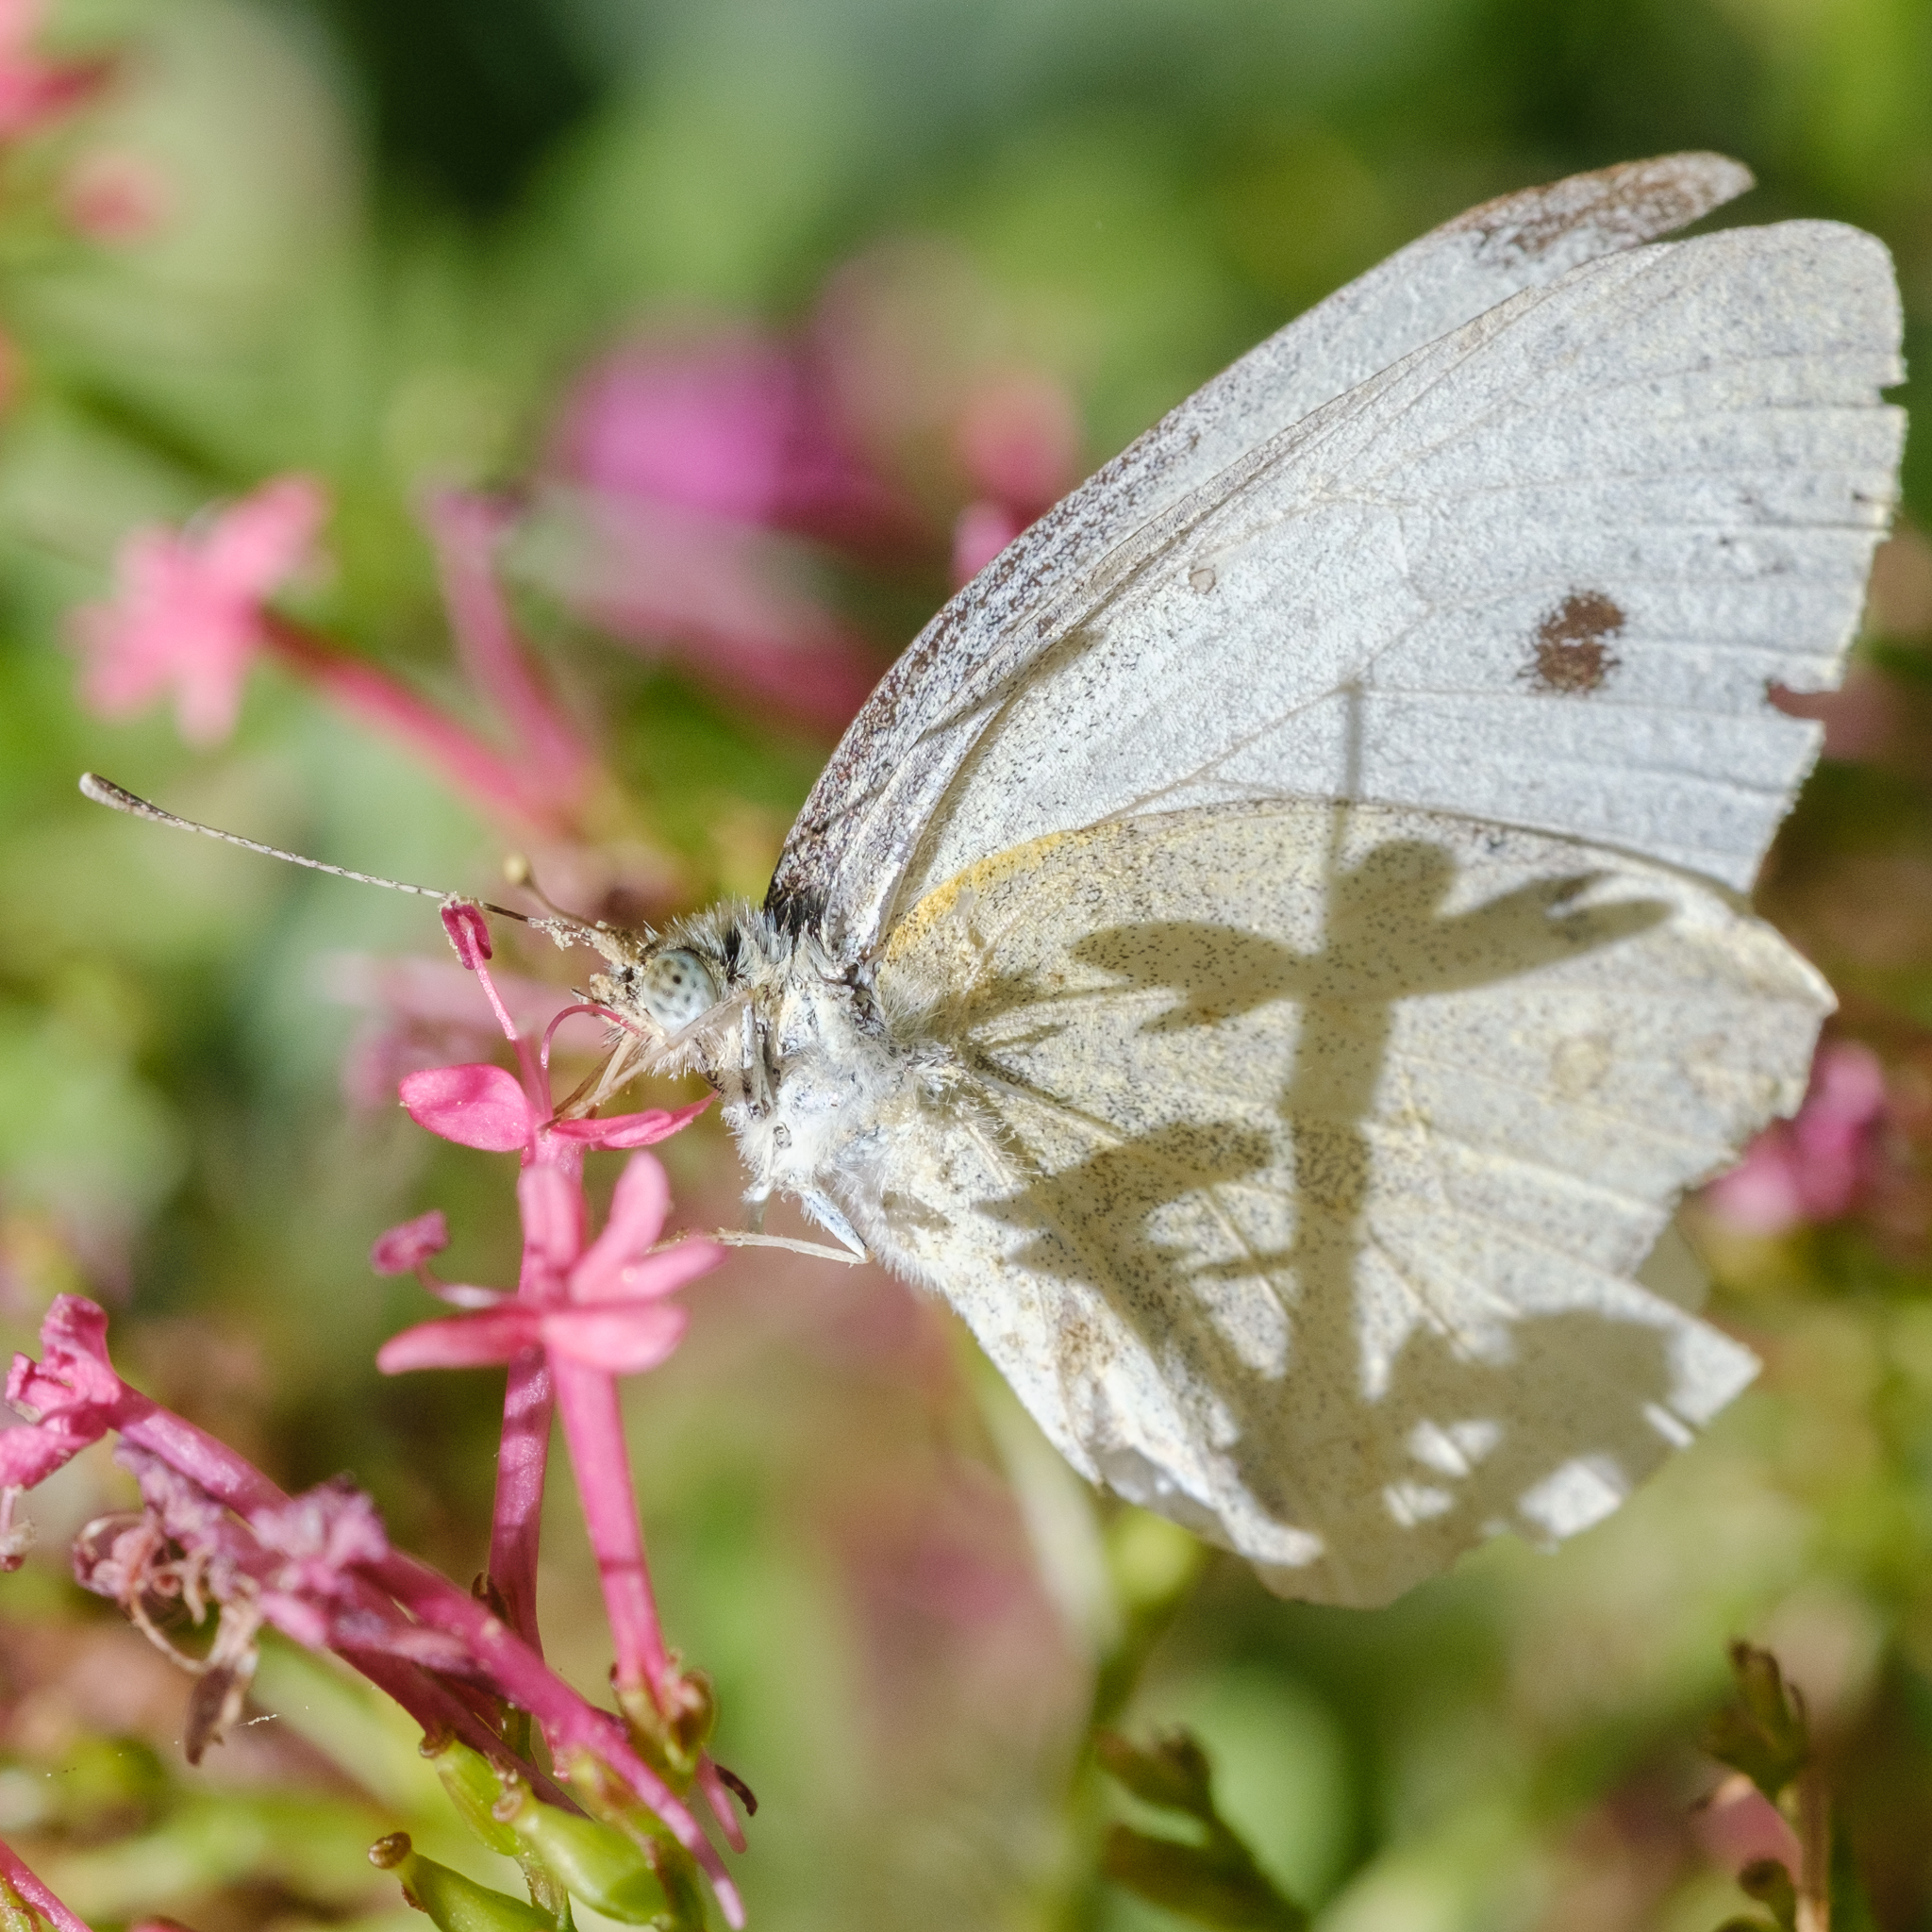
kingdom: Animalia
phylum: Arthropoda
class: Insecta
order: Lepidoptera
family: Pieridae
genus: Pieris
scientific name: Pieris rapae
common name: Small white
